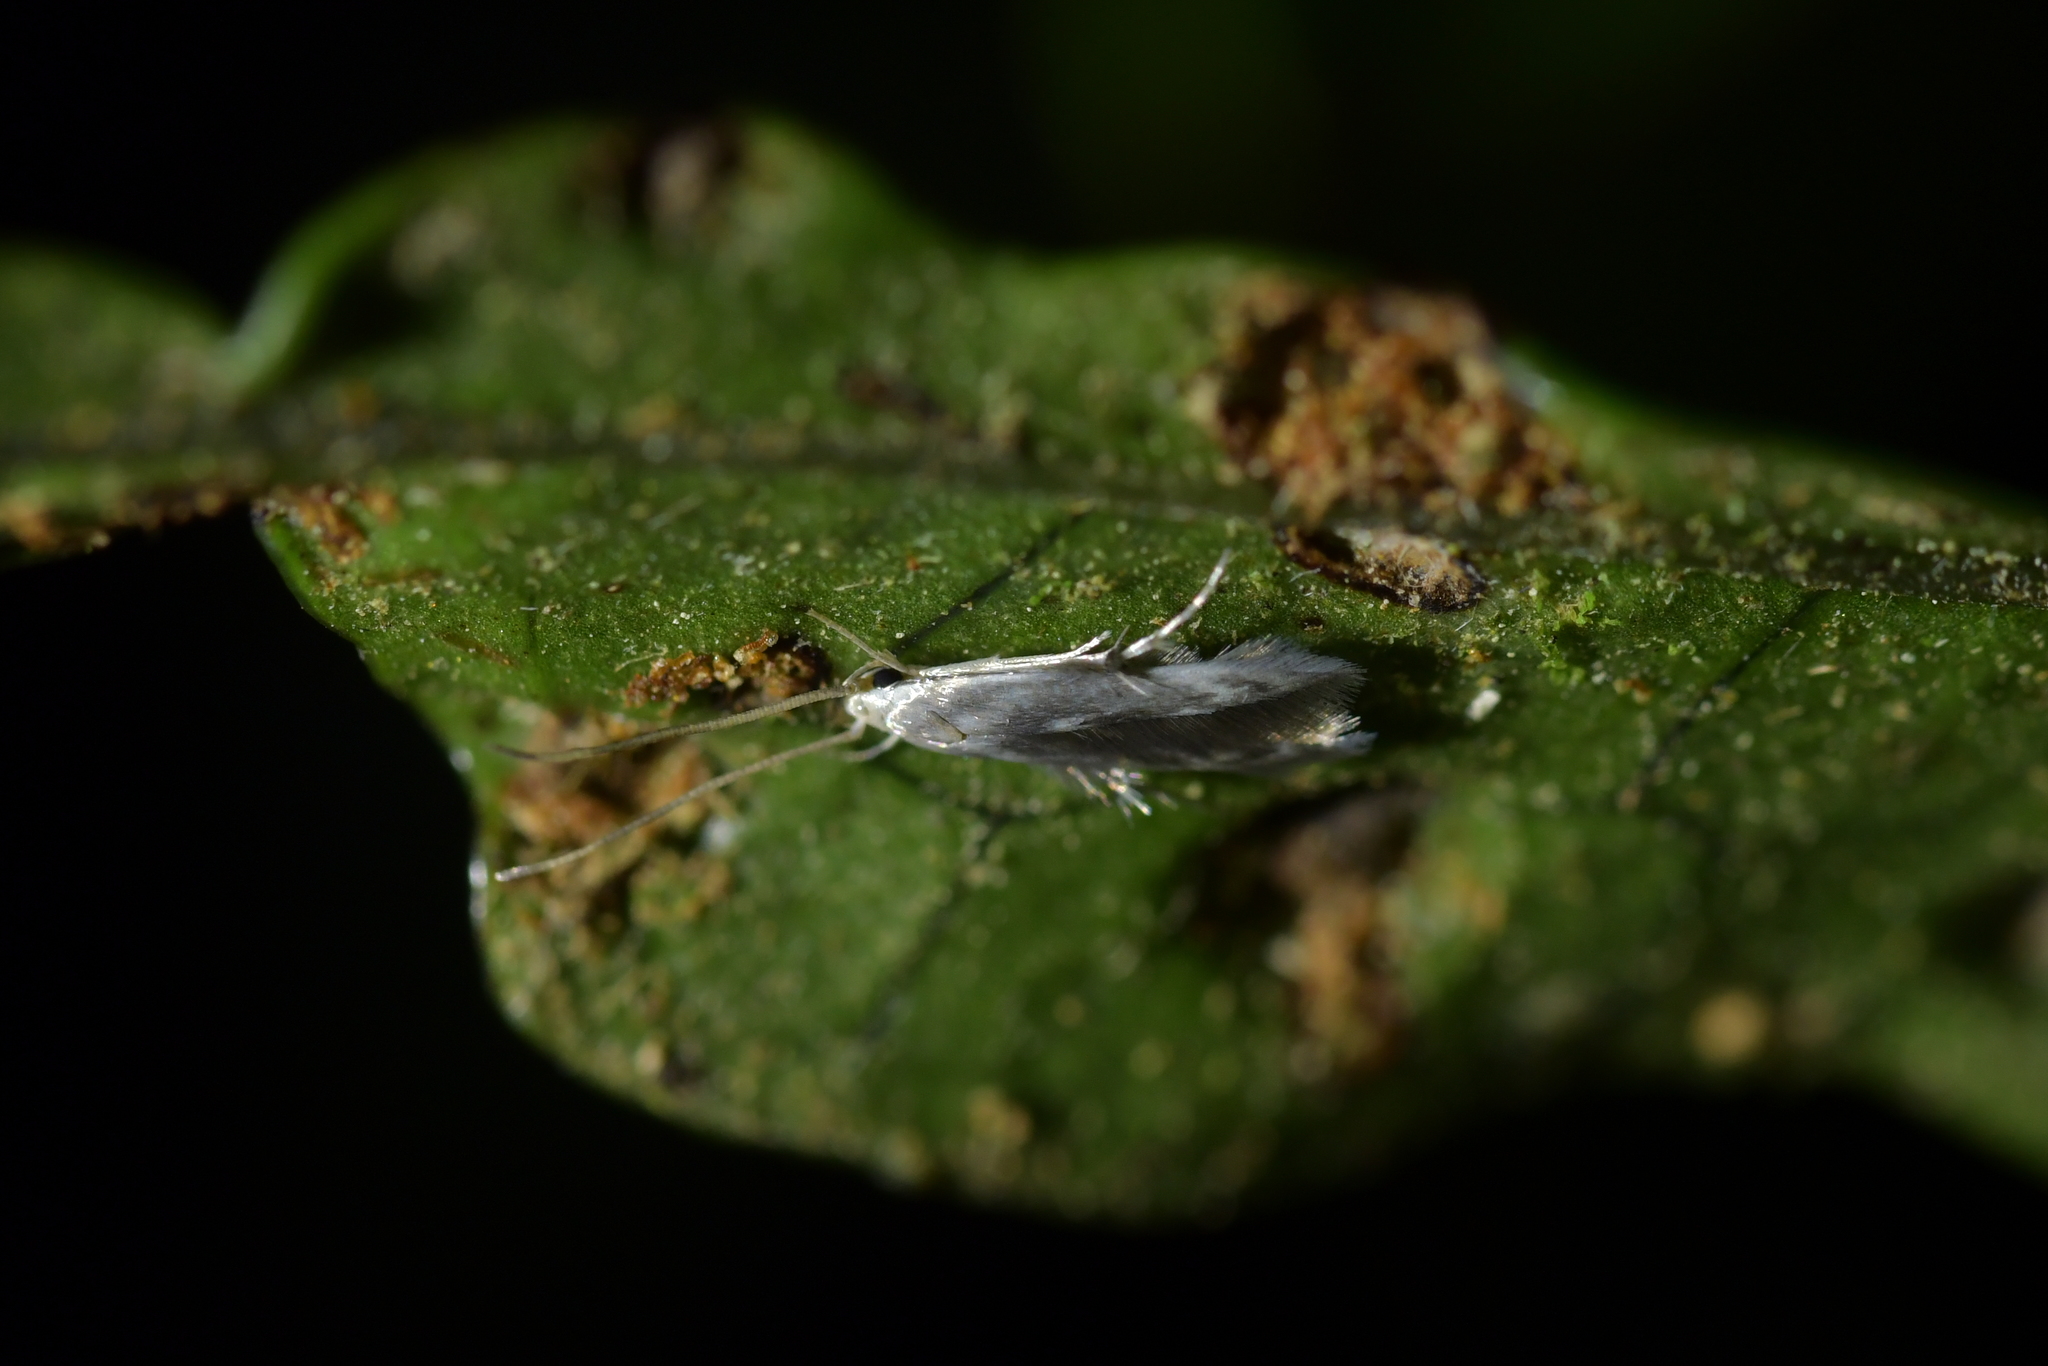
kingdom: Animalia
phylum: Arthropoda
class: Insecta
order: Lepidoptera
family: Stathmopodidae
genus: Thylacosceles
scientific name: Thylacosceles radians
